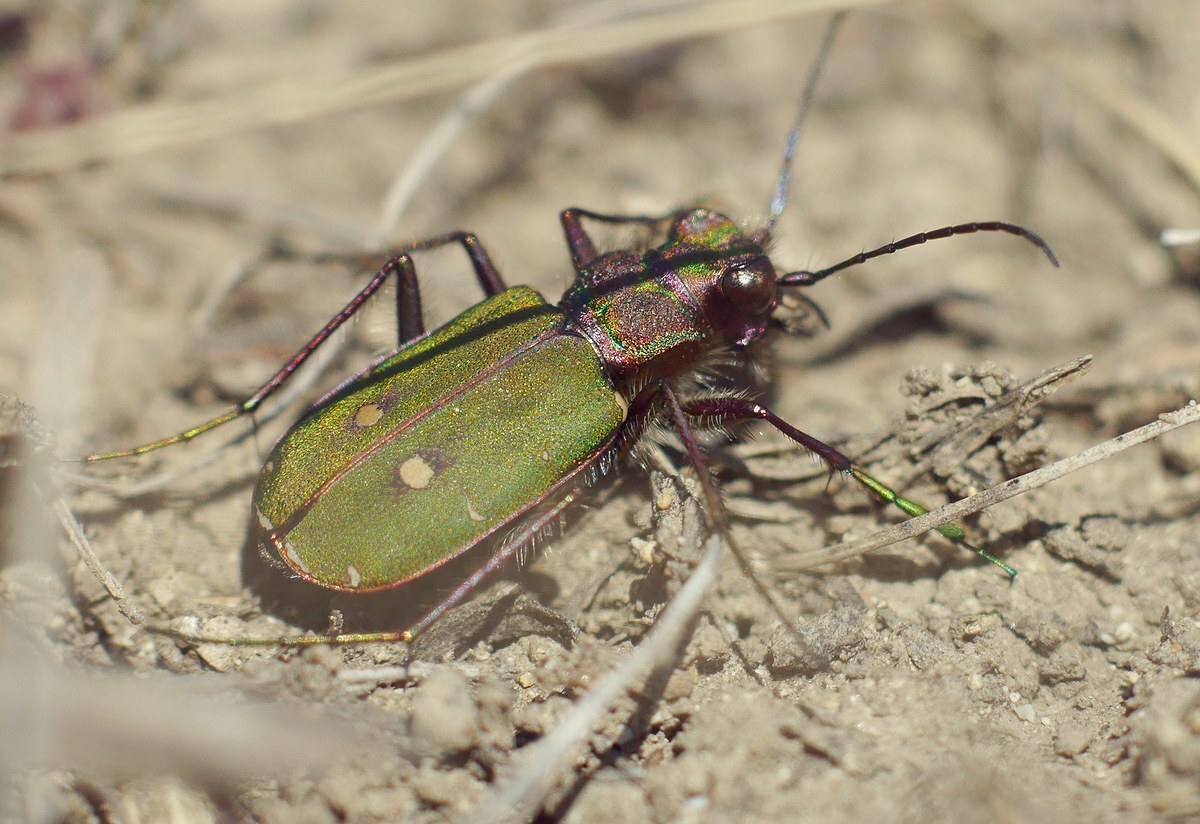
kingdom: Animalia
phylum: Arthropoda
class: Insecta
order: Coleoptera
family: Carabidae
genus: Cicindela
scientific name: Cicindela campestris
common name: Common tiger beetle
